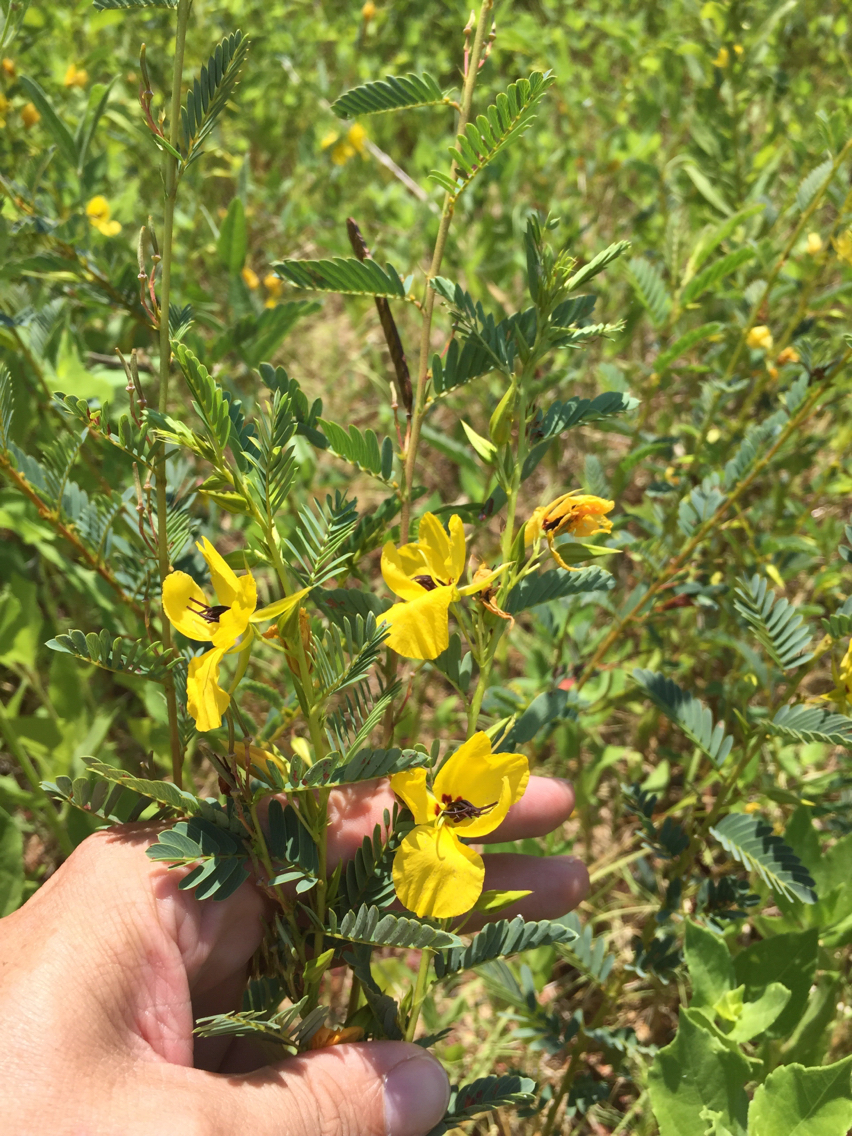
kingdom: Plantae
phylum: Tracheophyta
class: Magnoliopsida
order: Fabales
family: Fabaceae
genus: Chamaecrista
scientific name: Chamaecrista fasciculata
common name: Golden cassia
